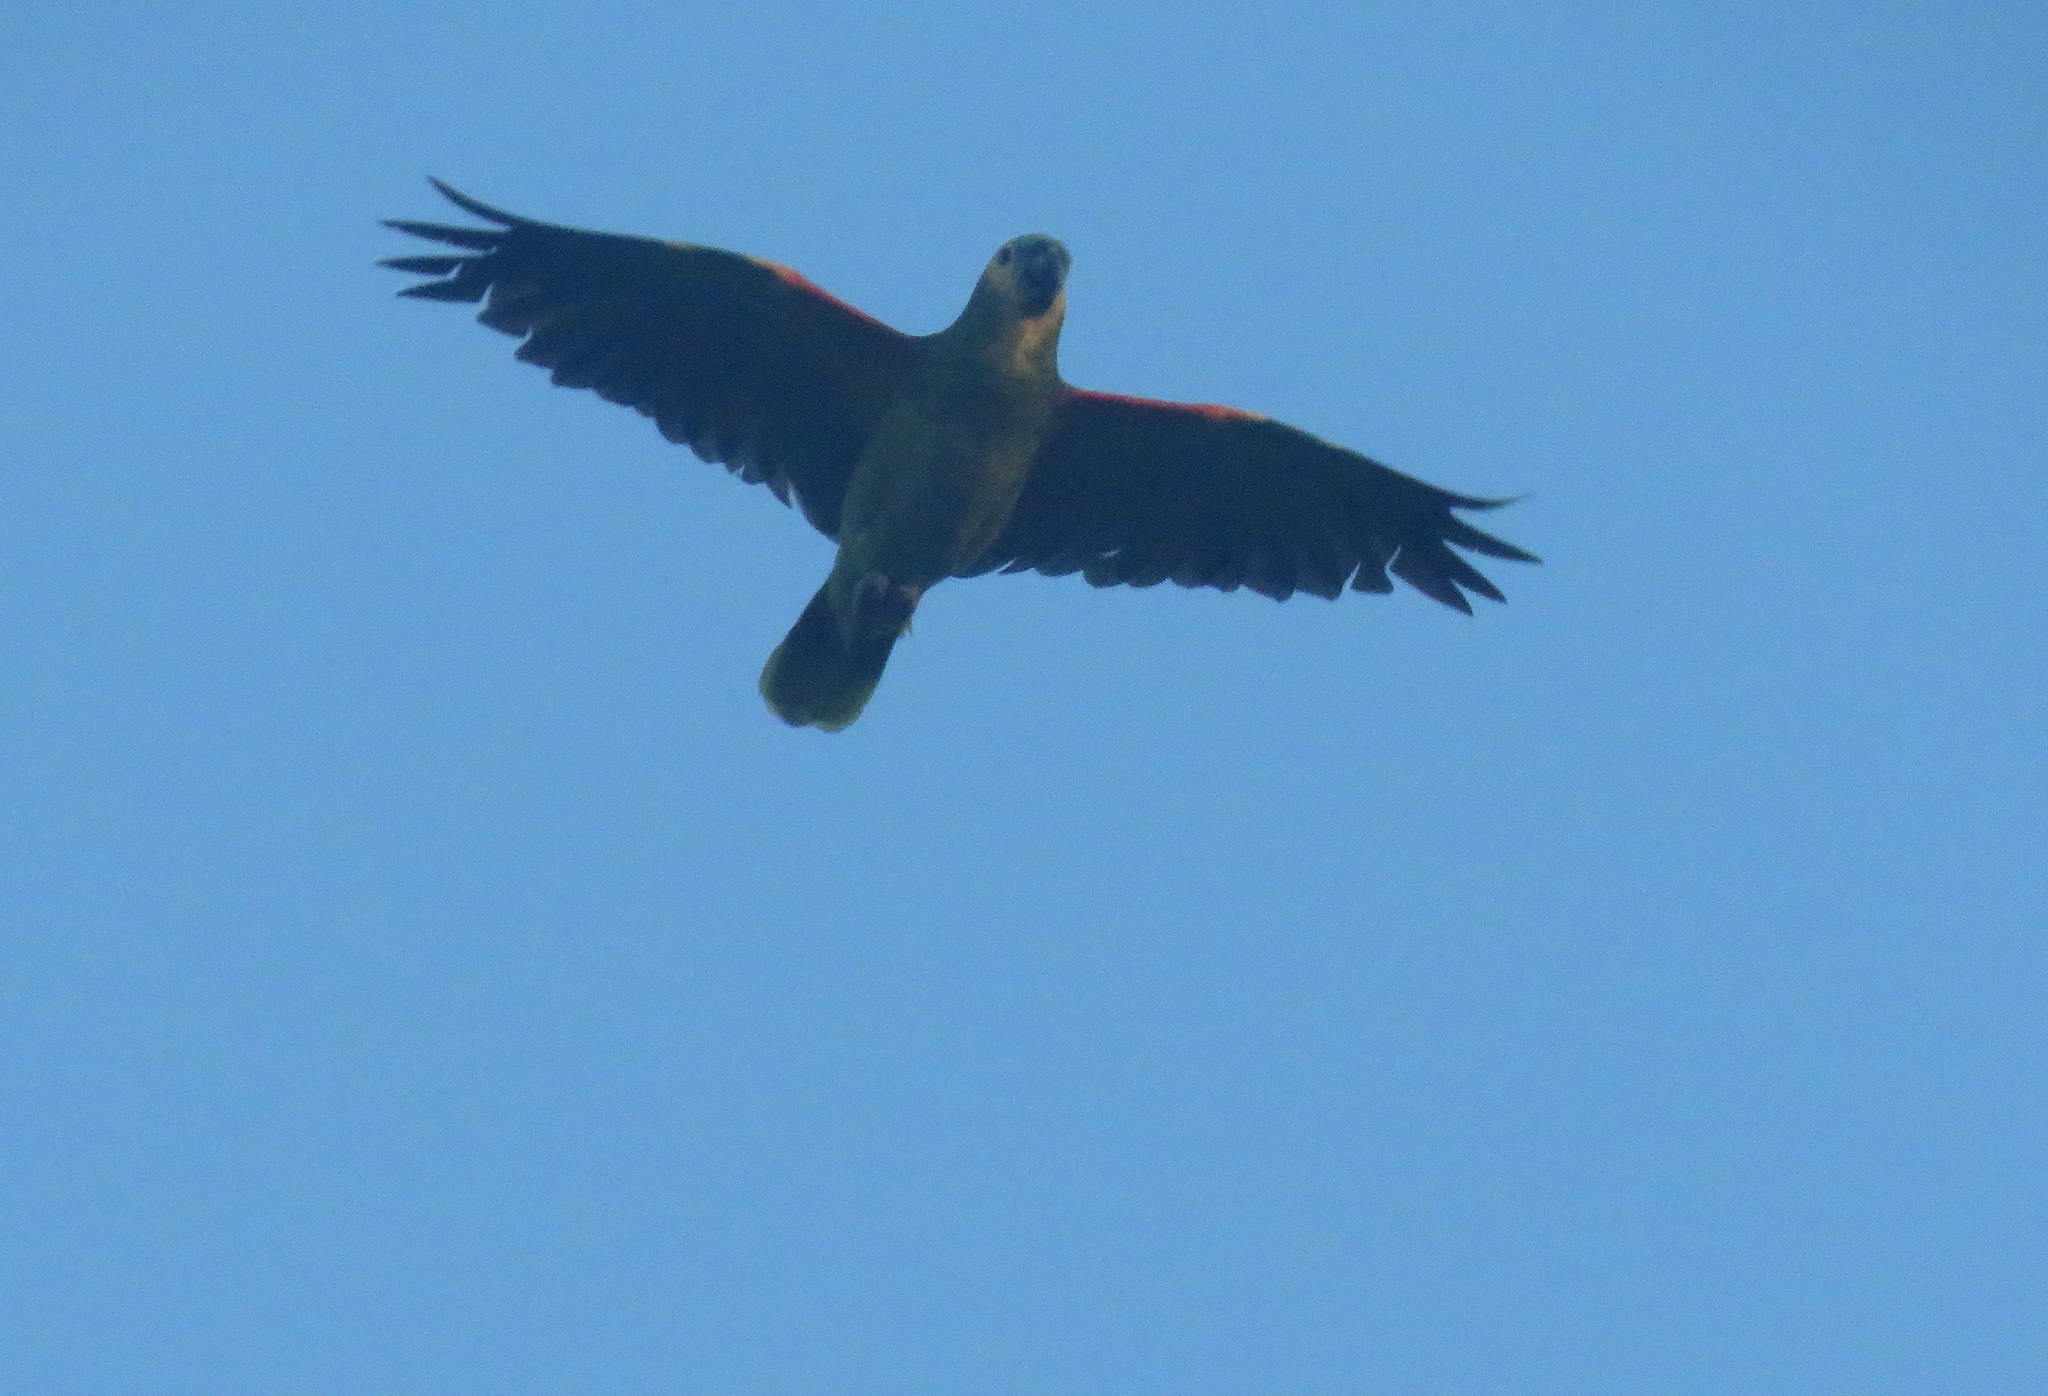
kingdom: Animalia
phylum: Chordata
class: Aves
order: Psittaciformes
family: Psittacidae
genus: Amazona
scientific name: Amazona aestiva
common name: Turquoise-fronted amazon
